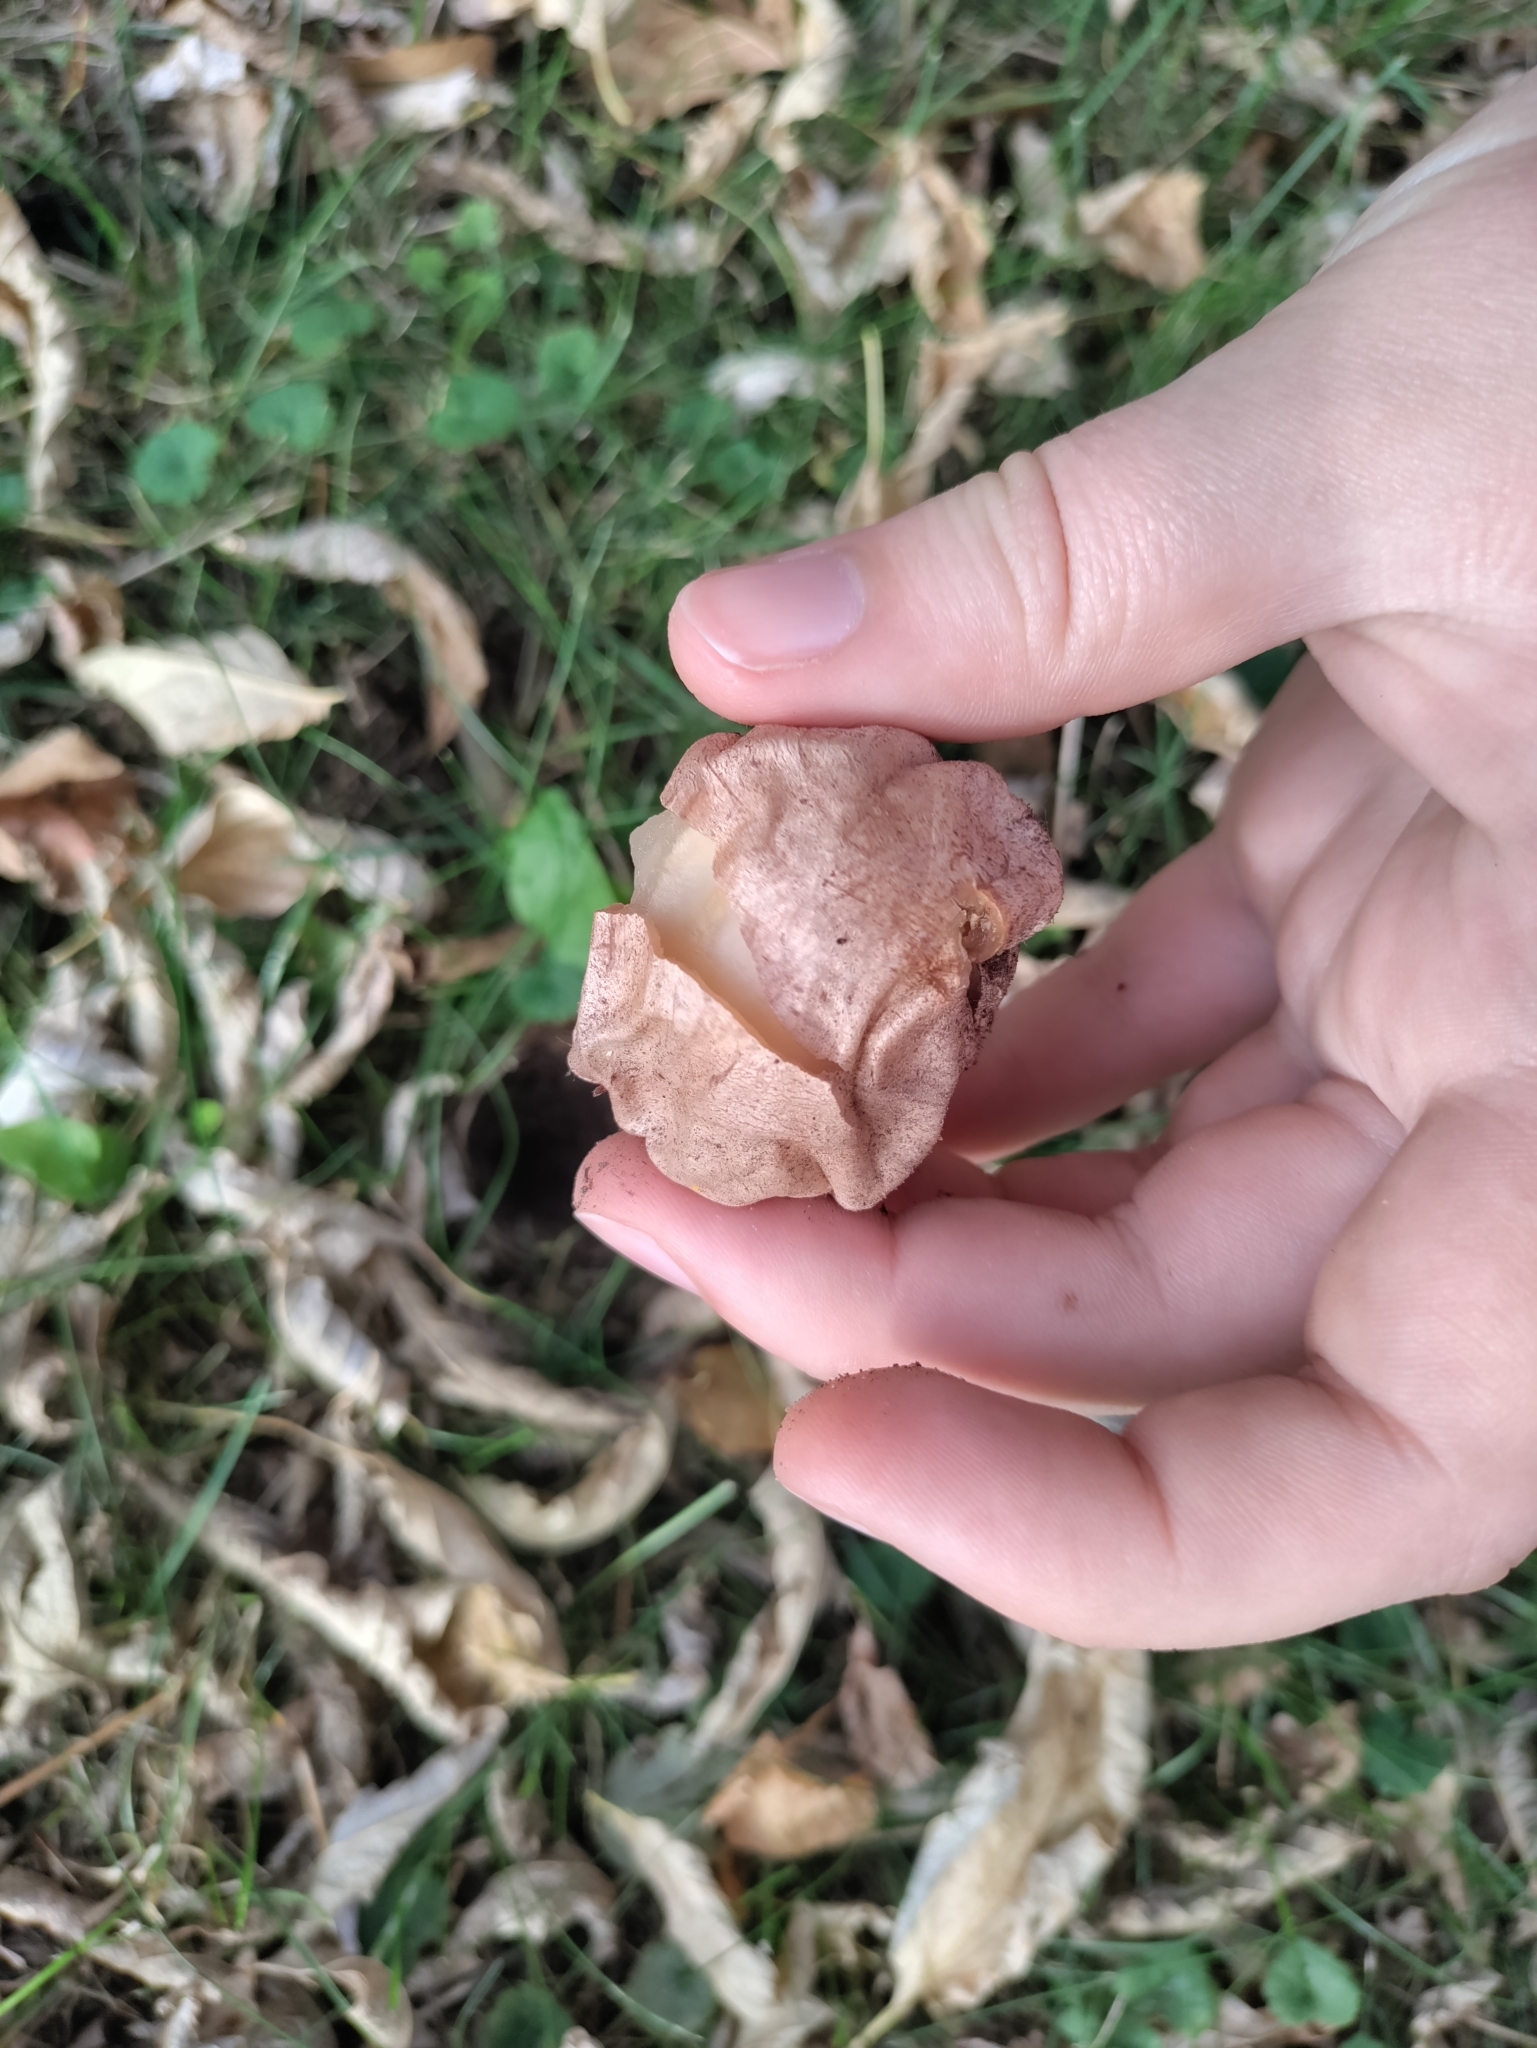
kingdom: Fungi
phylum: Basidiomycota
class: Agaricomycetes
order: Phallales
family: Phallaceae
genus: Phallus
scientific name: Phallus hadriani
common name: Sand stinkhorn
